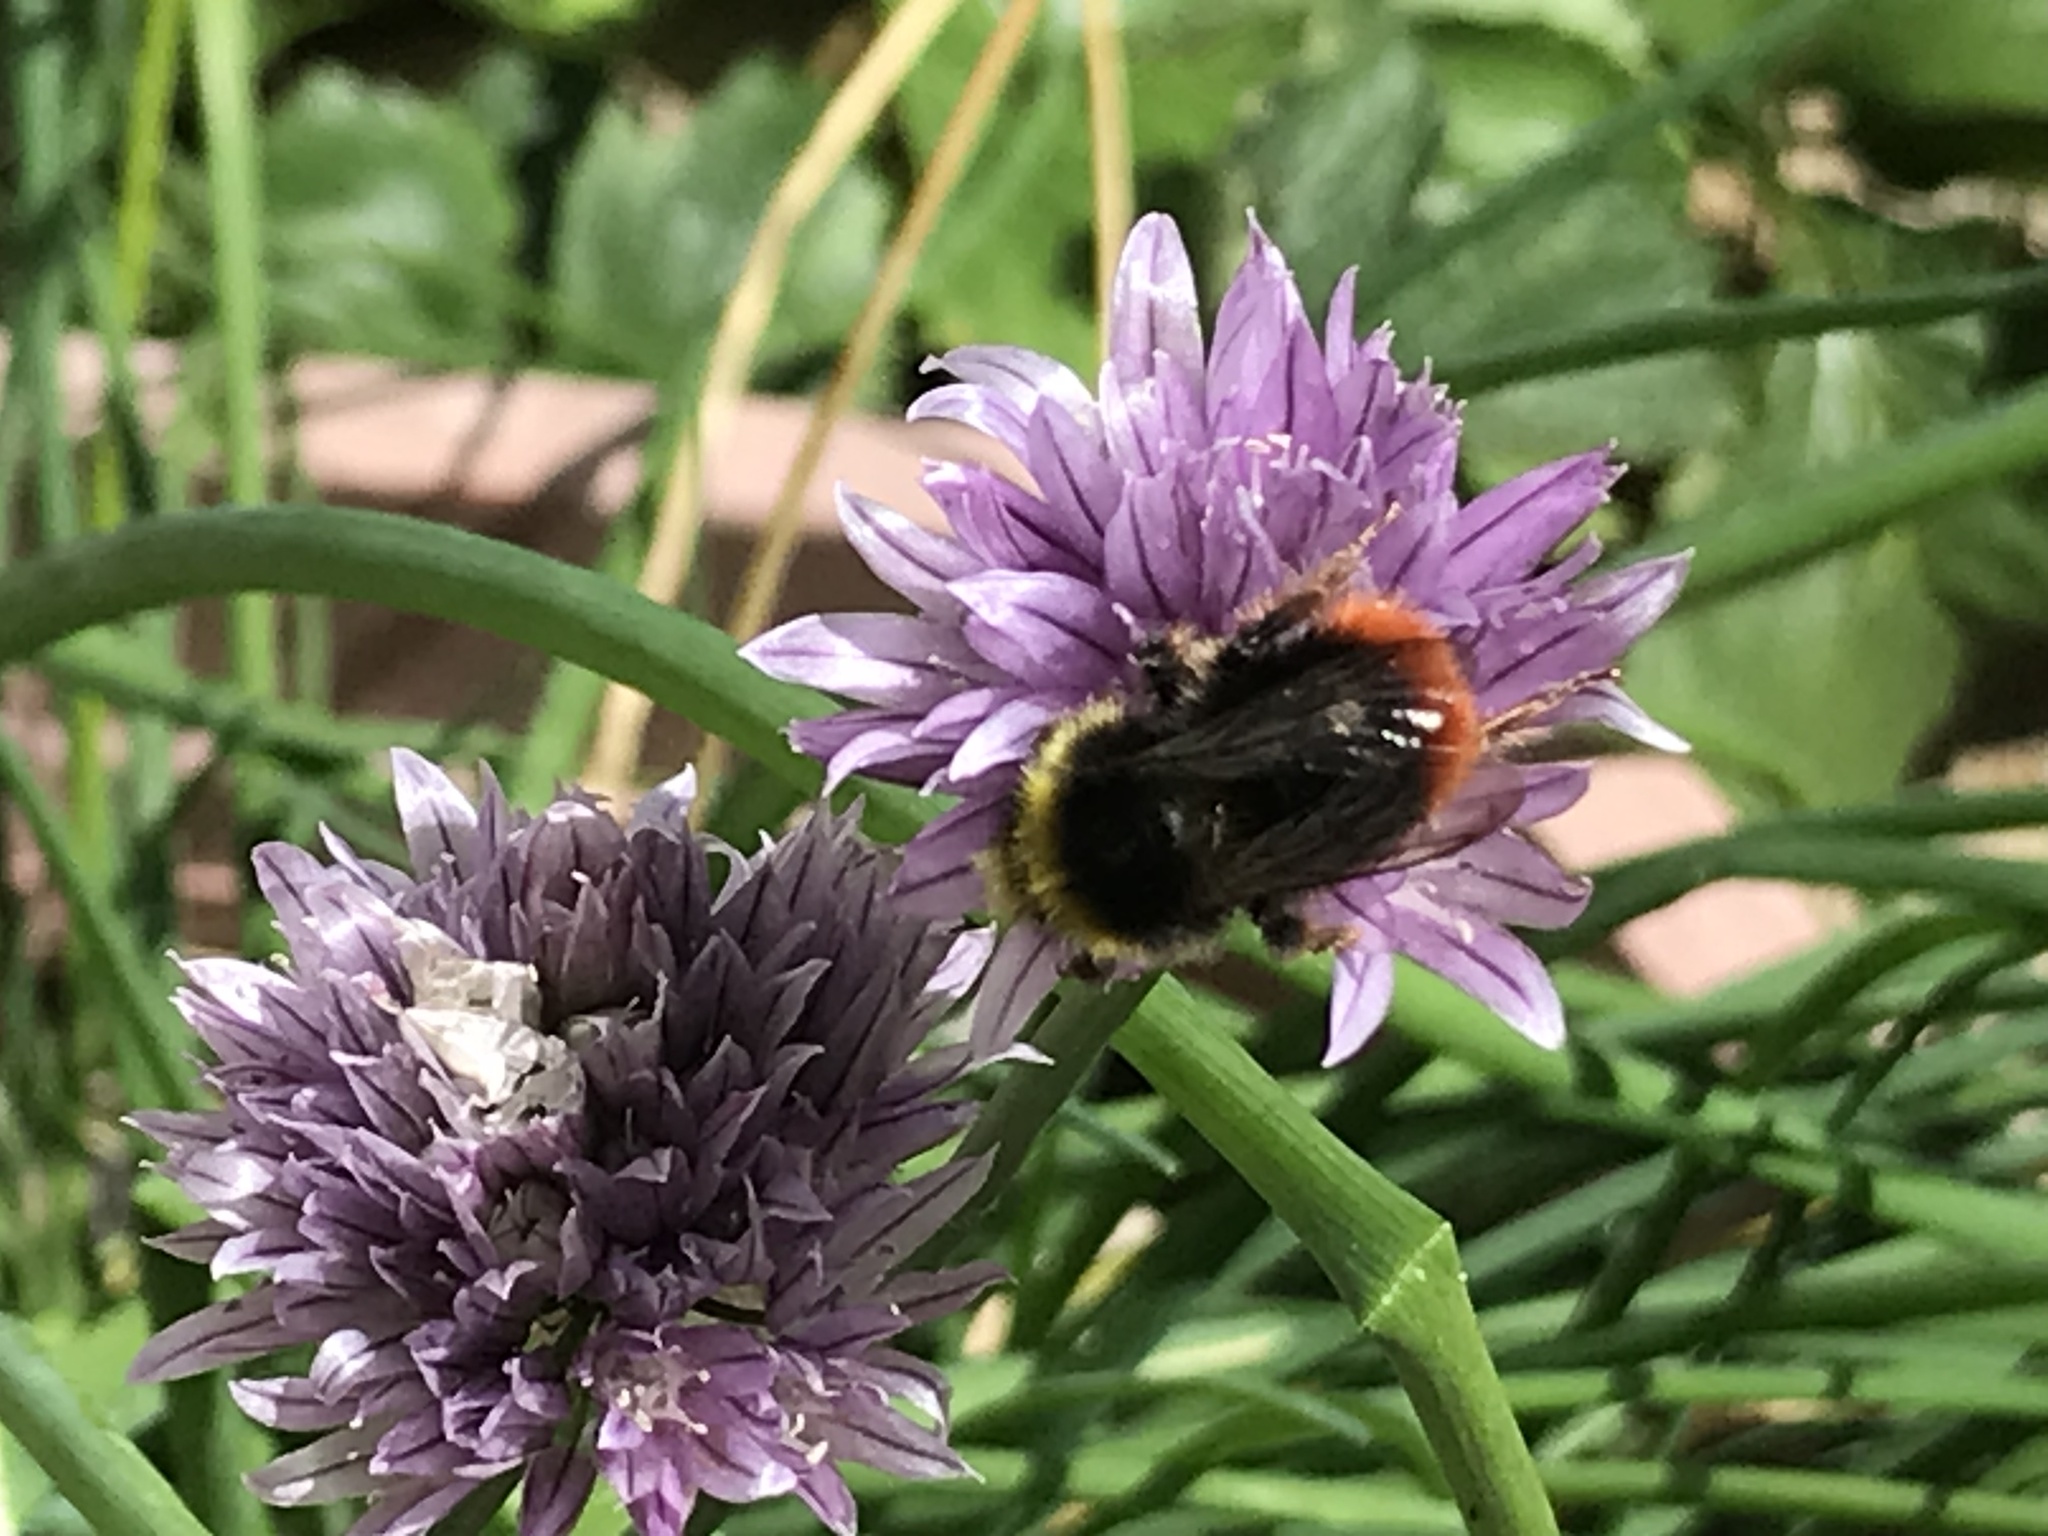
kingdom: Animalia
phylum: Arthropoda
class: Insecta
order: Hymenoptera
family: Apidae
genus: Bombus
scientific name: Bombus lapidarius
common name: Large red-tailed humble-bee
